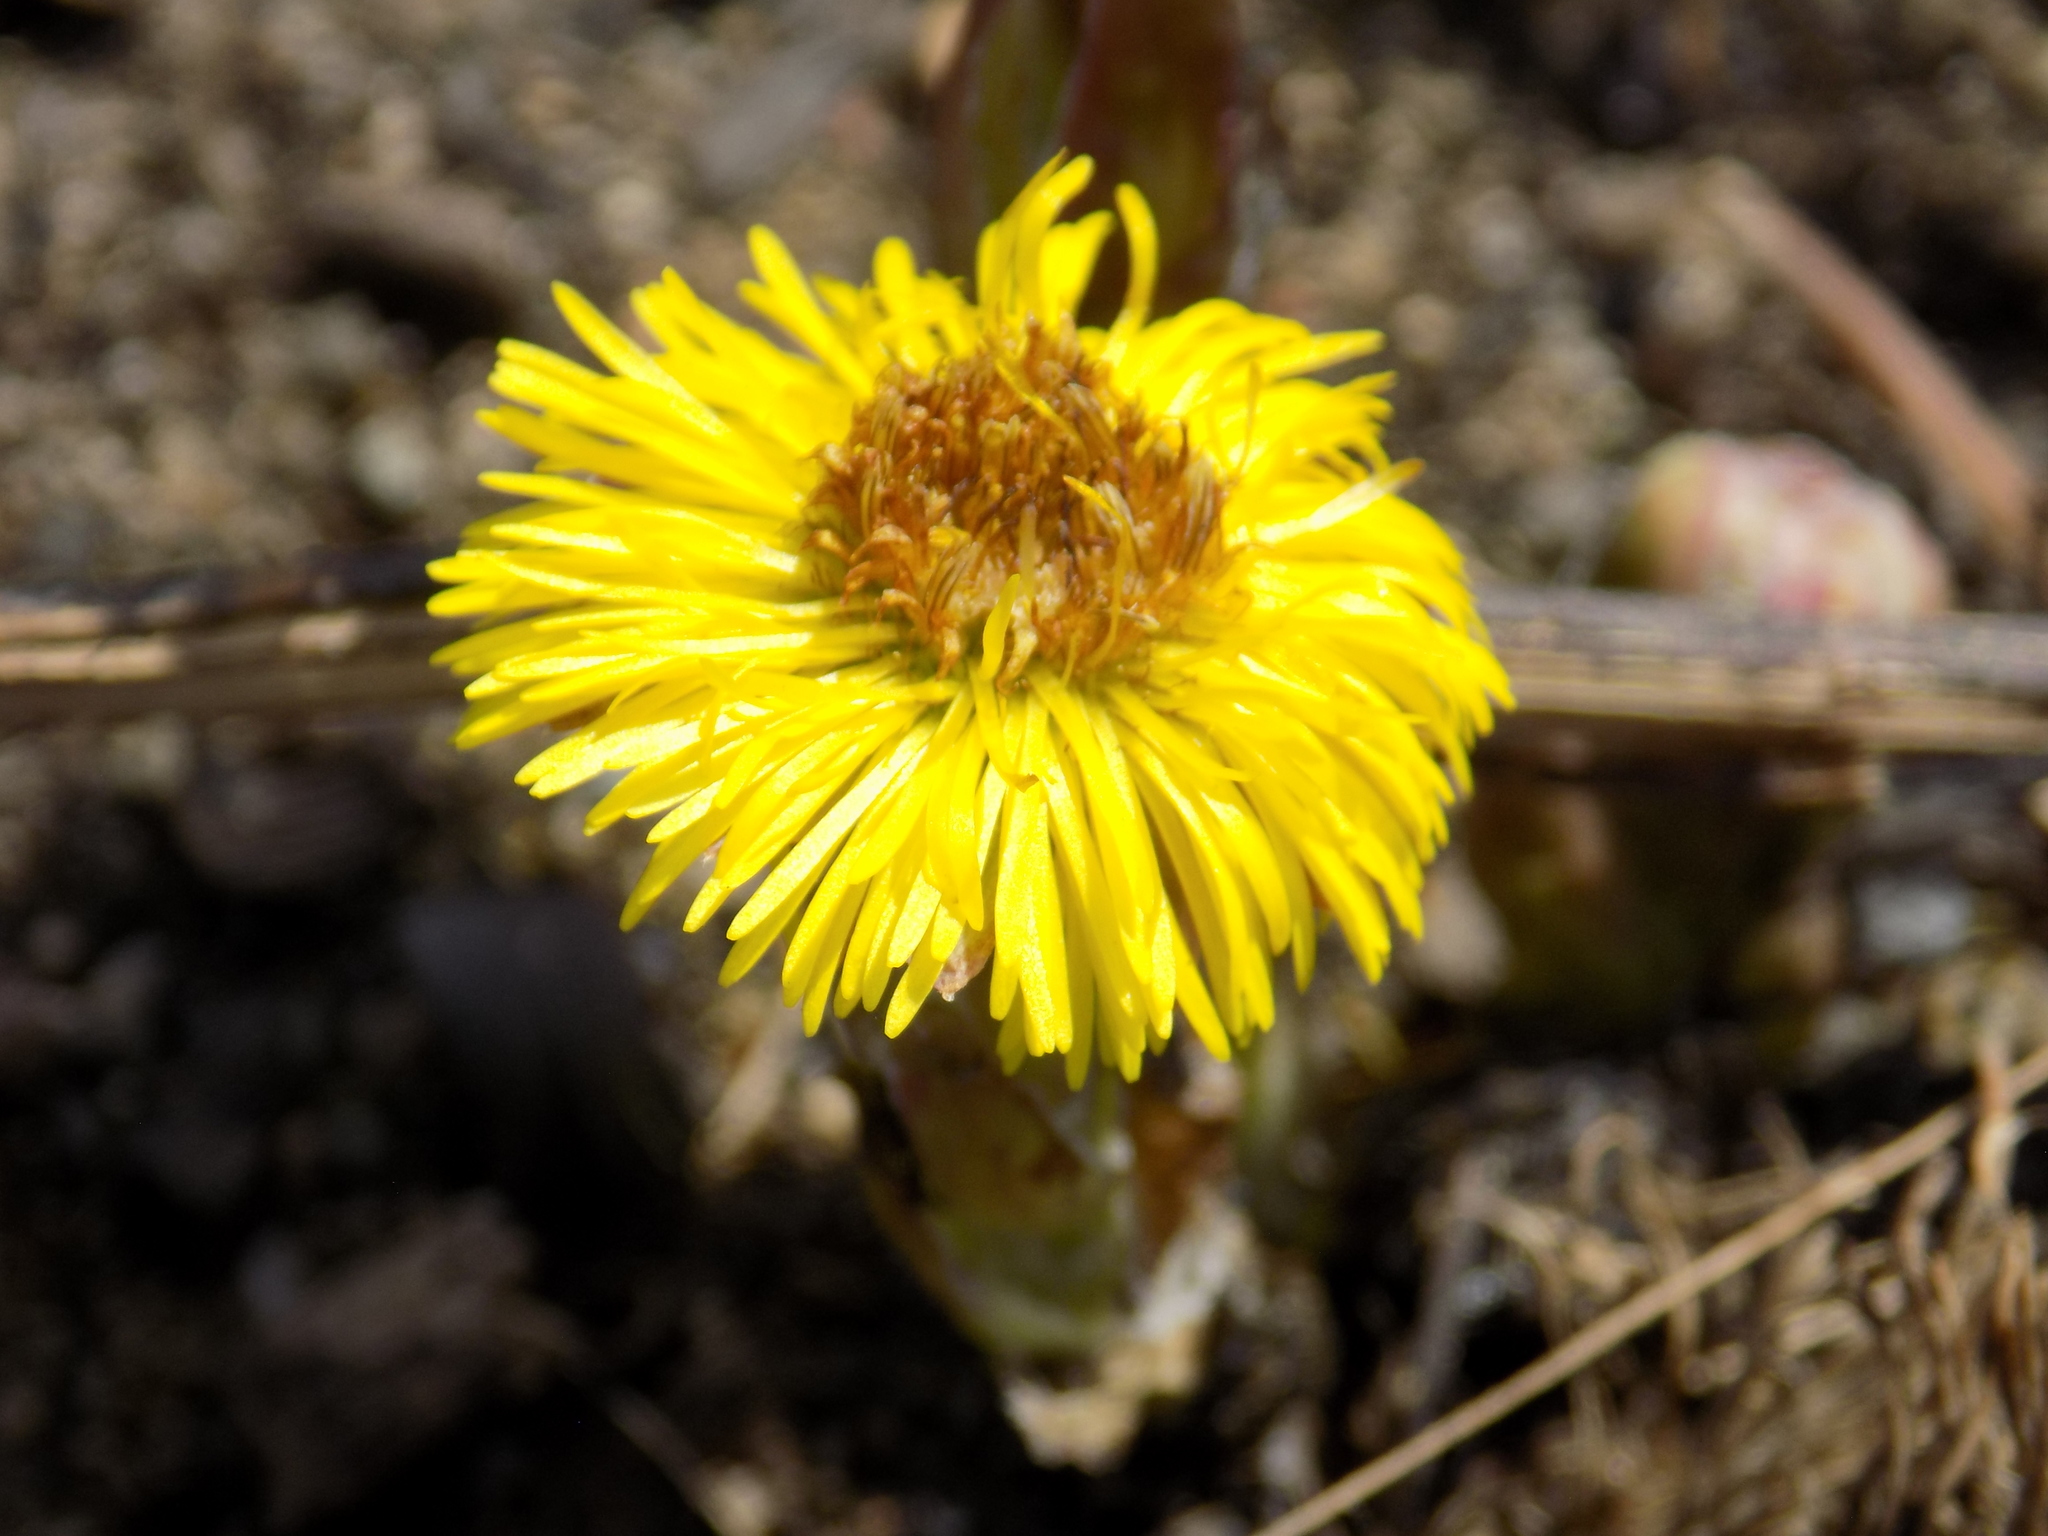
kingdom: Plantae
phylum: Tracheophyta
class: Magnoliopsida
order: Asterales
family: Asteraceae
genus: Tussilago
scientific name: Tussilago farfara
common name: Coltsfoot
